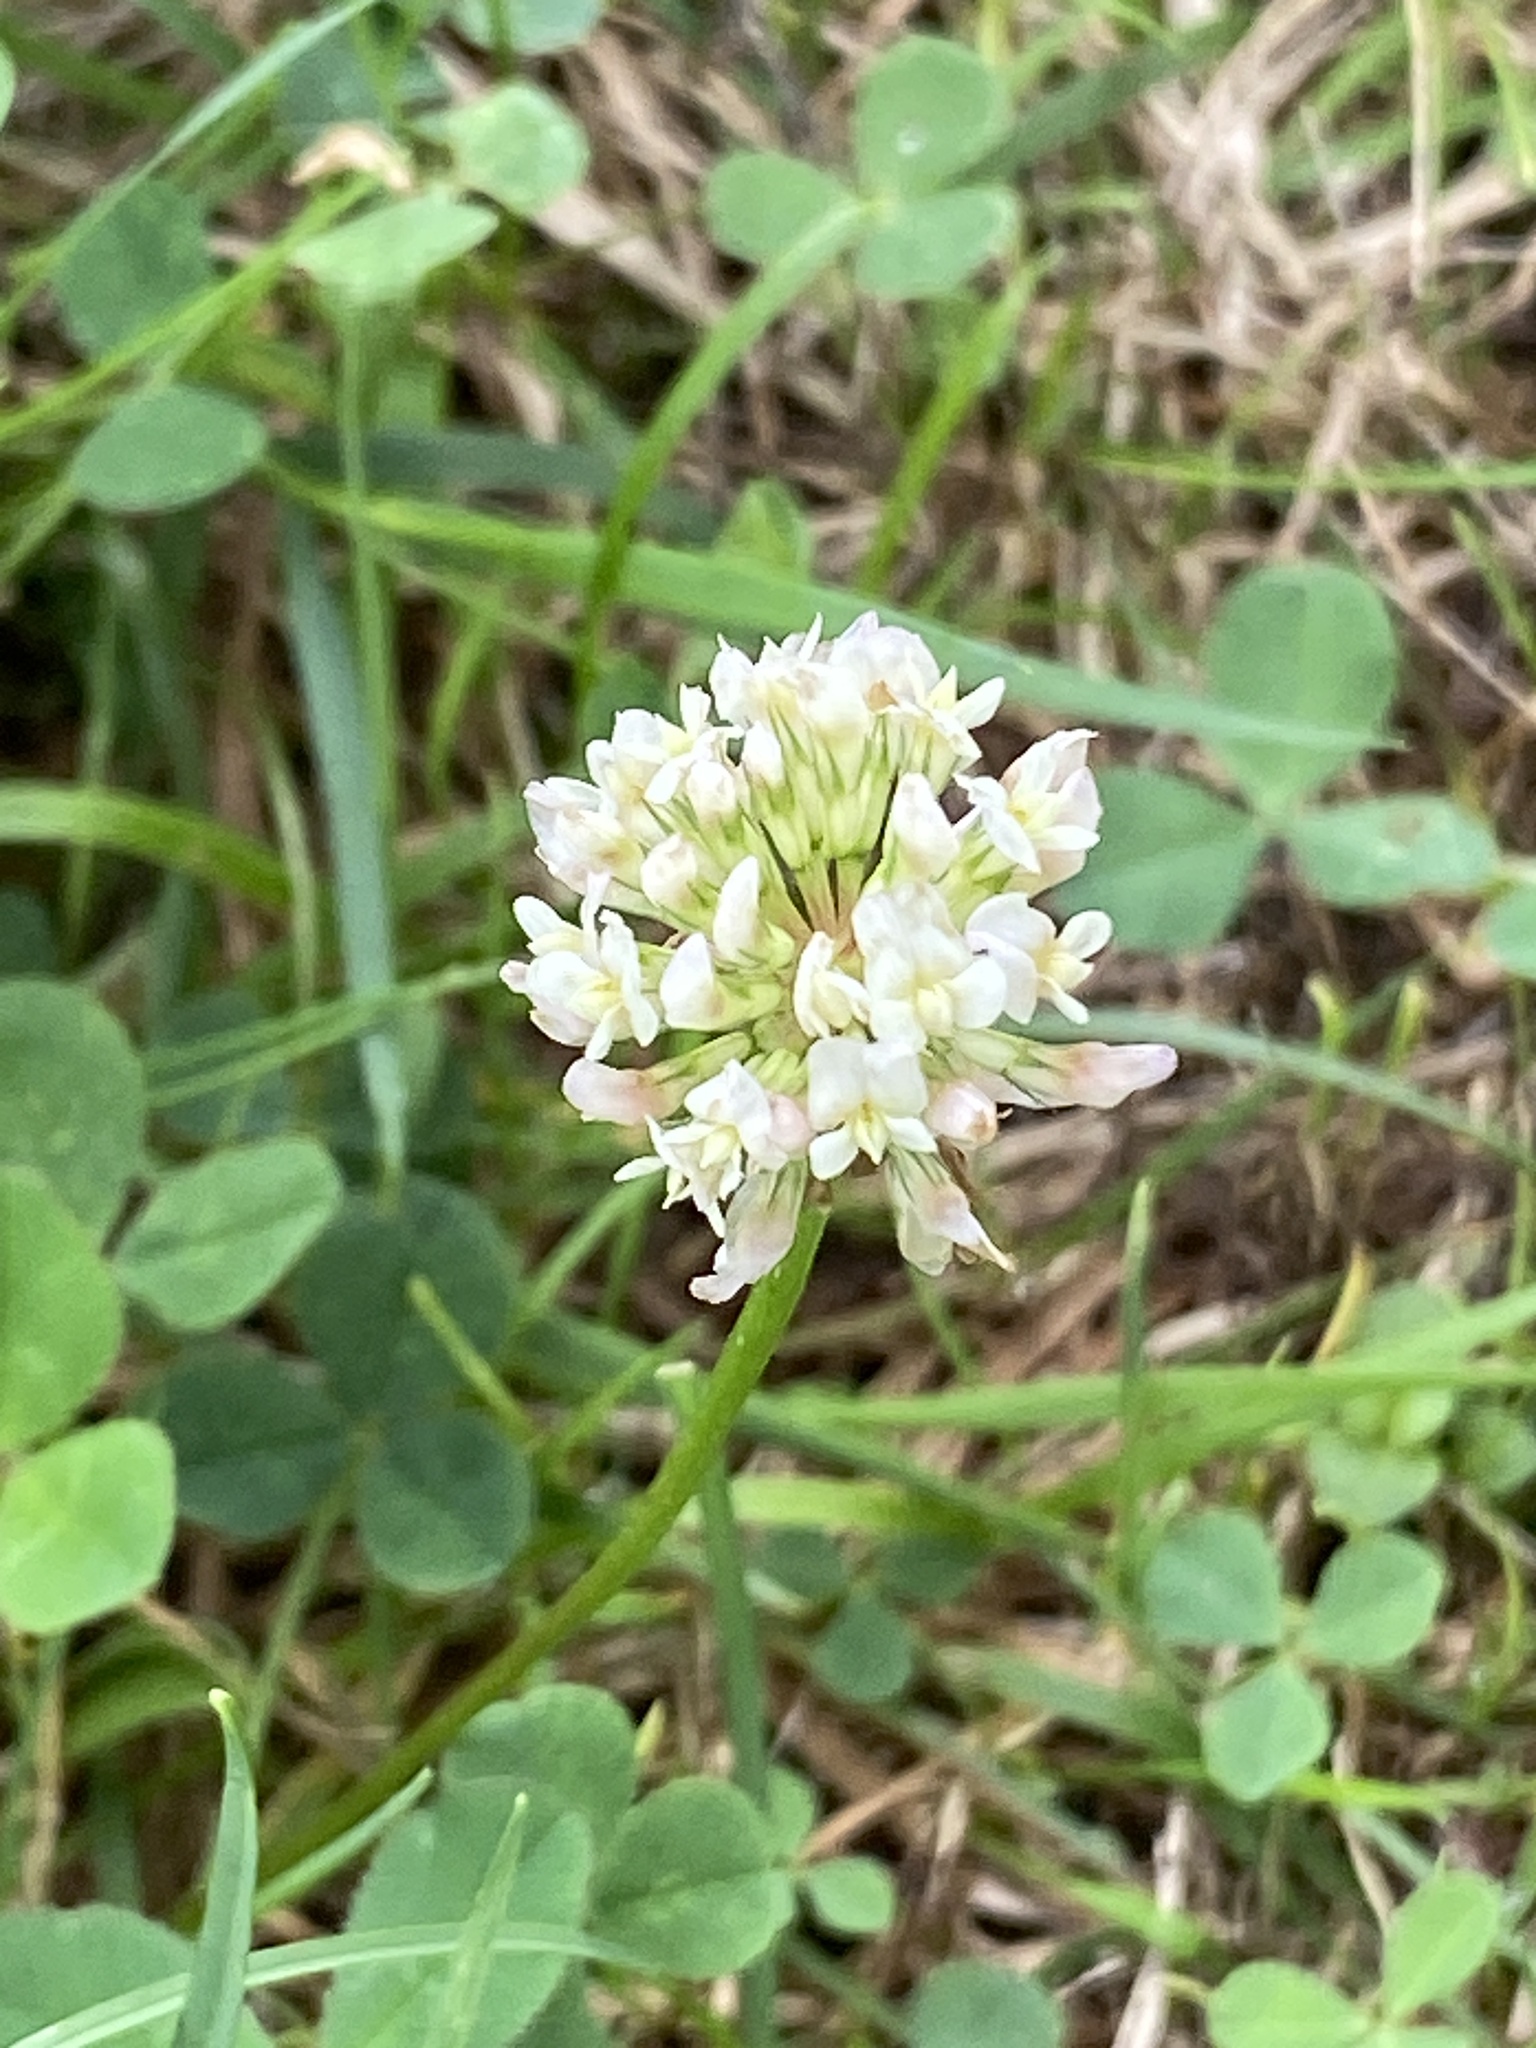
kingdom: Plantae
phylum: Tracheophyta
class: Magnoliopsida
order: Fabales
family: Fabaceae
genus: Trifolium
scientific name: Trifolium repens
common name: White clover
